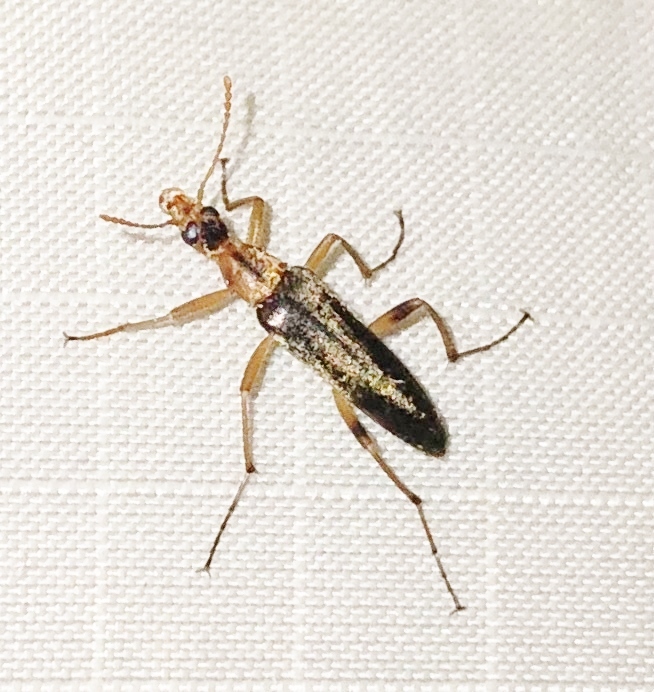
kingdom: Animalia
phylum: Arthropoda
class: Insecta
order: Coleoptera
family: Stenotrachelidae
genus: Cephaloon
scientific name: Cephaloon lepturides
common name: False leptura beetle
